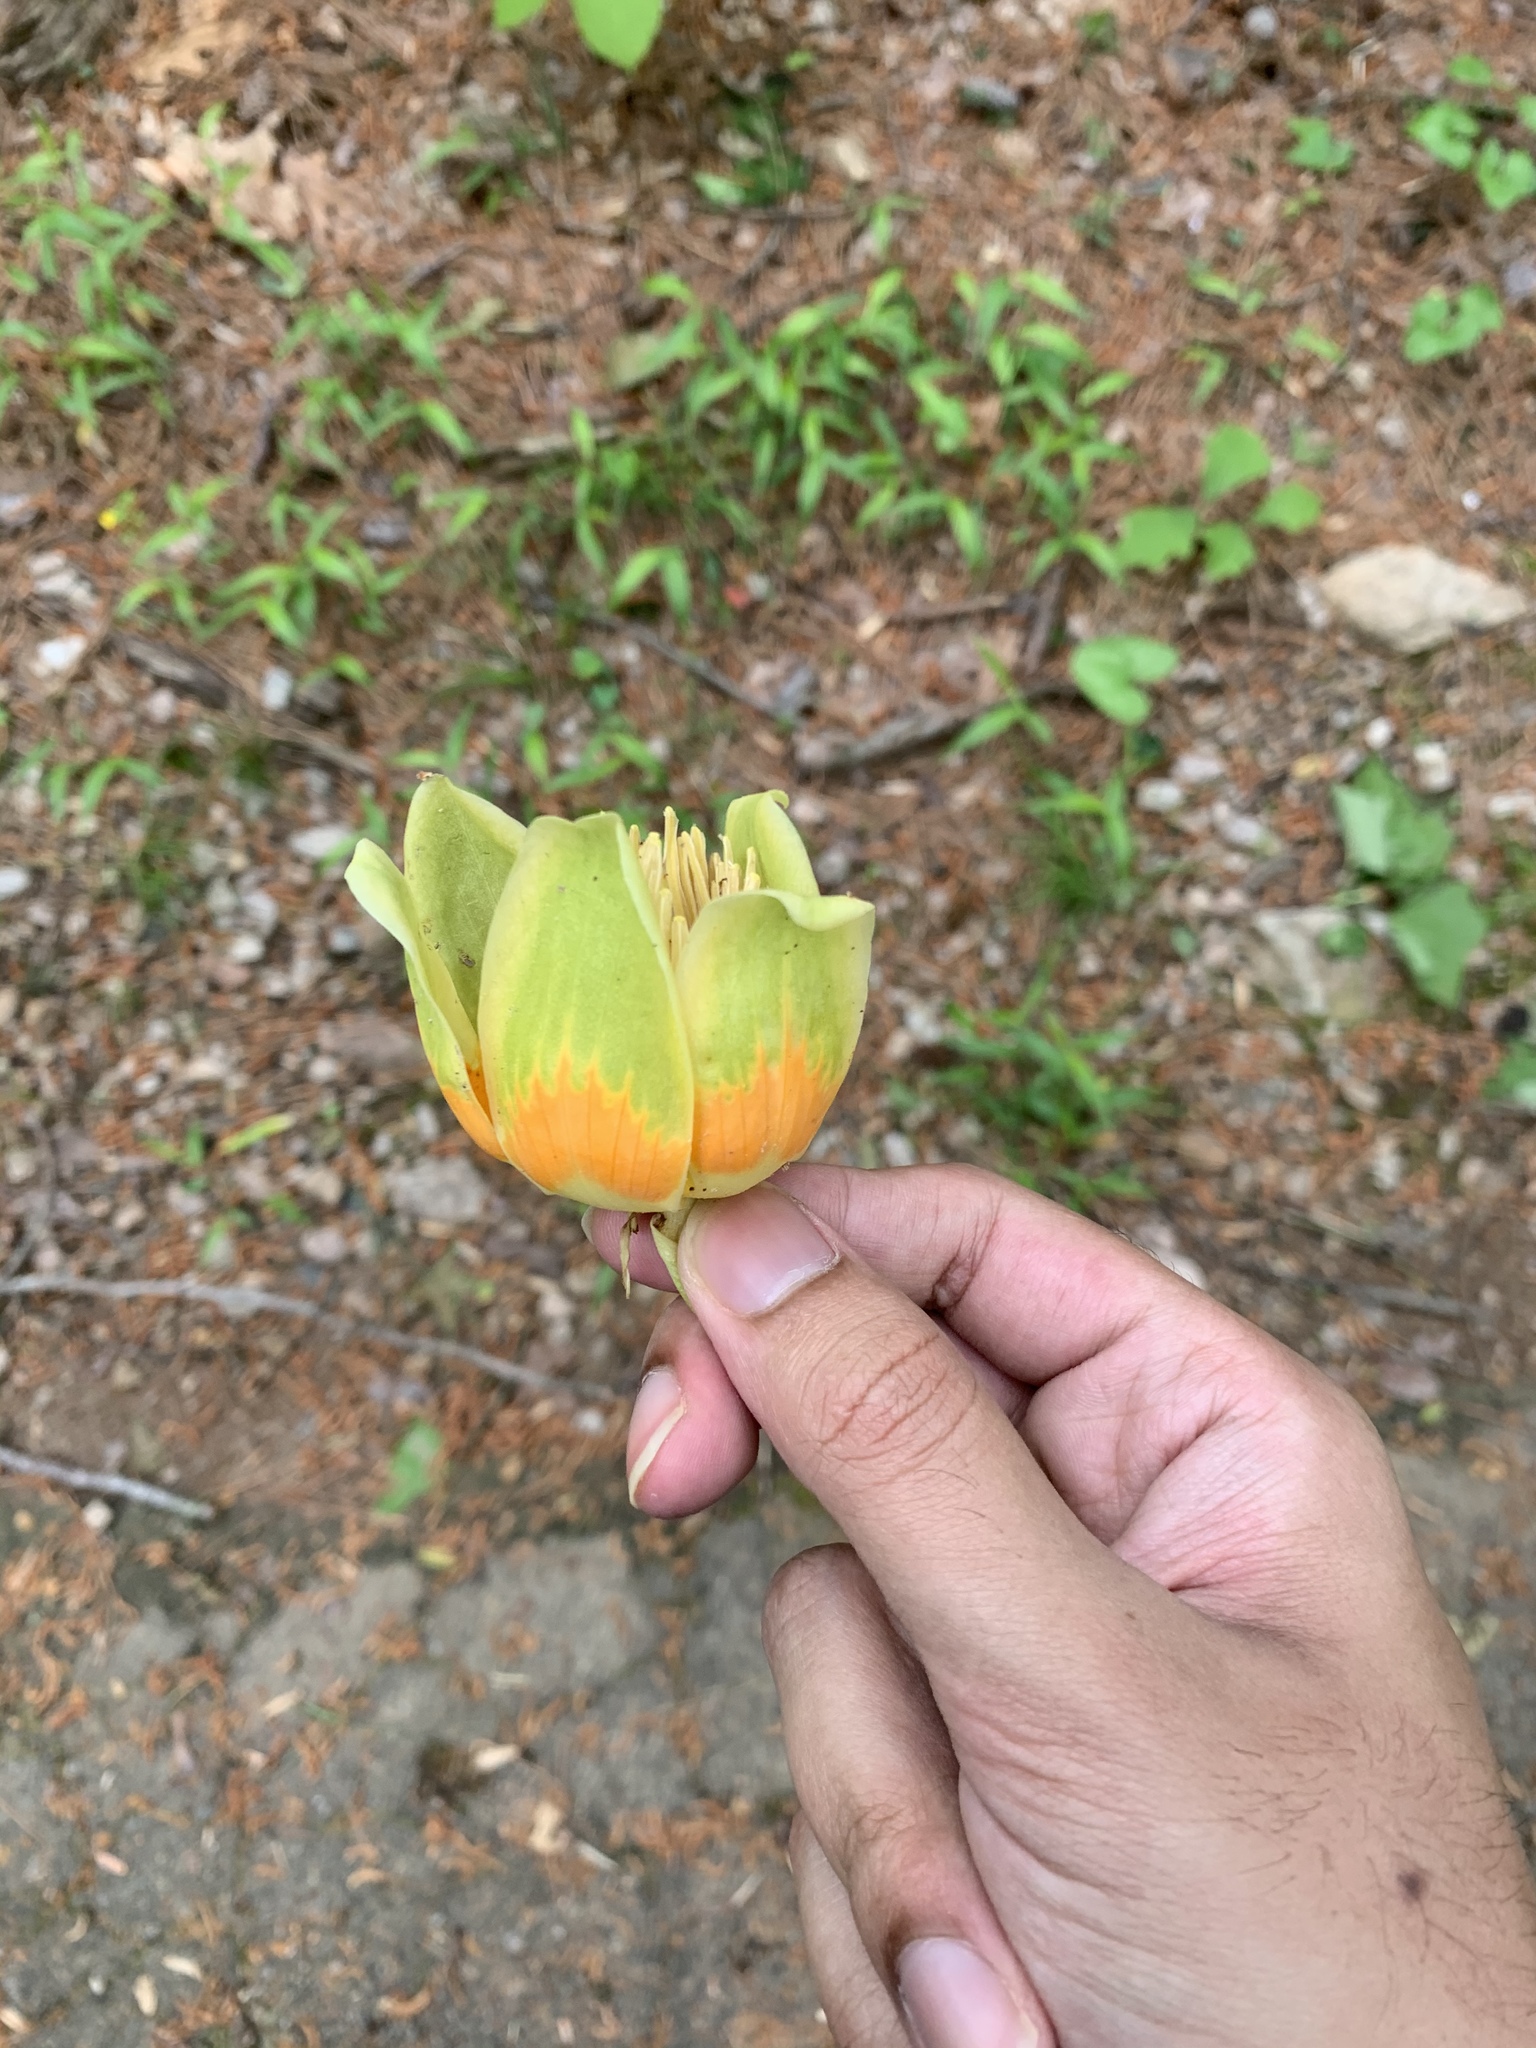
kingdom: Plantae
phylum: Tracheophyta
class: Magnoliopsida
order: Magnoliales
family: Magnoliaceae
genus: Liriodendron
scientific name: Liriodendron tulipifera
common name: Tulip tree
